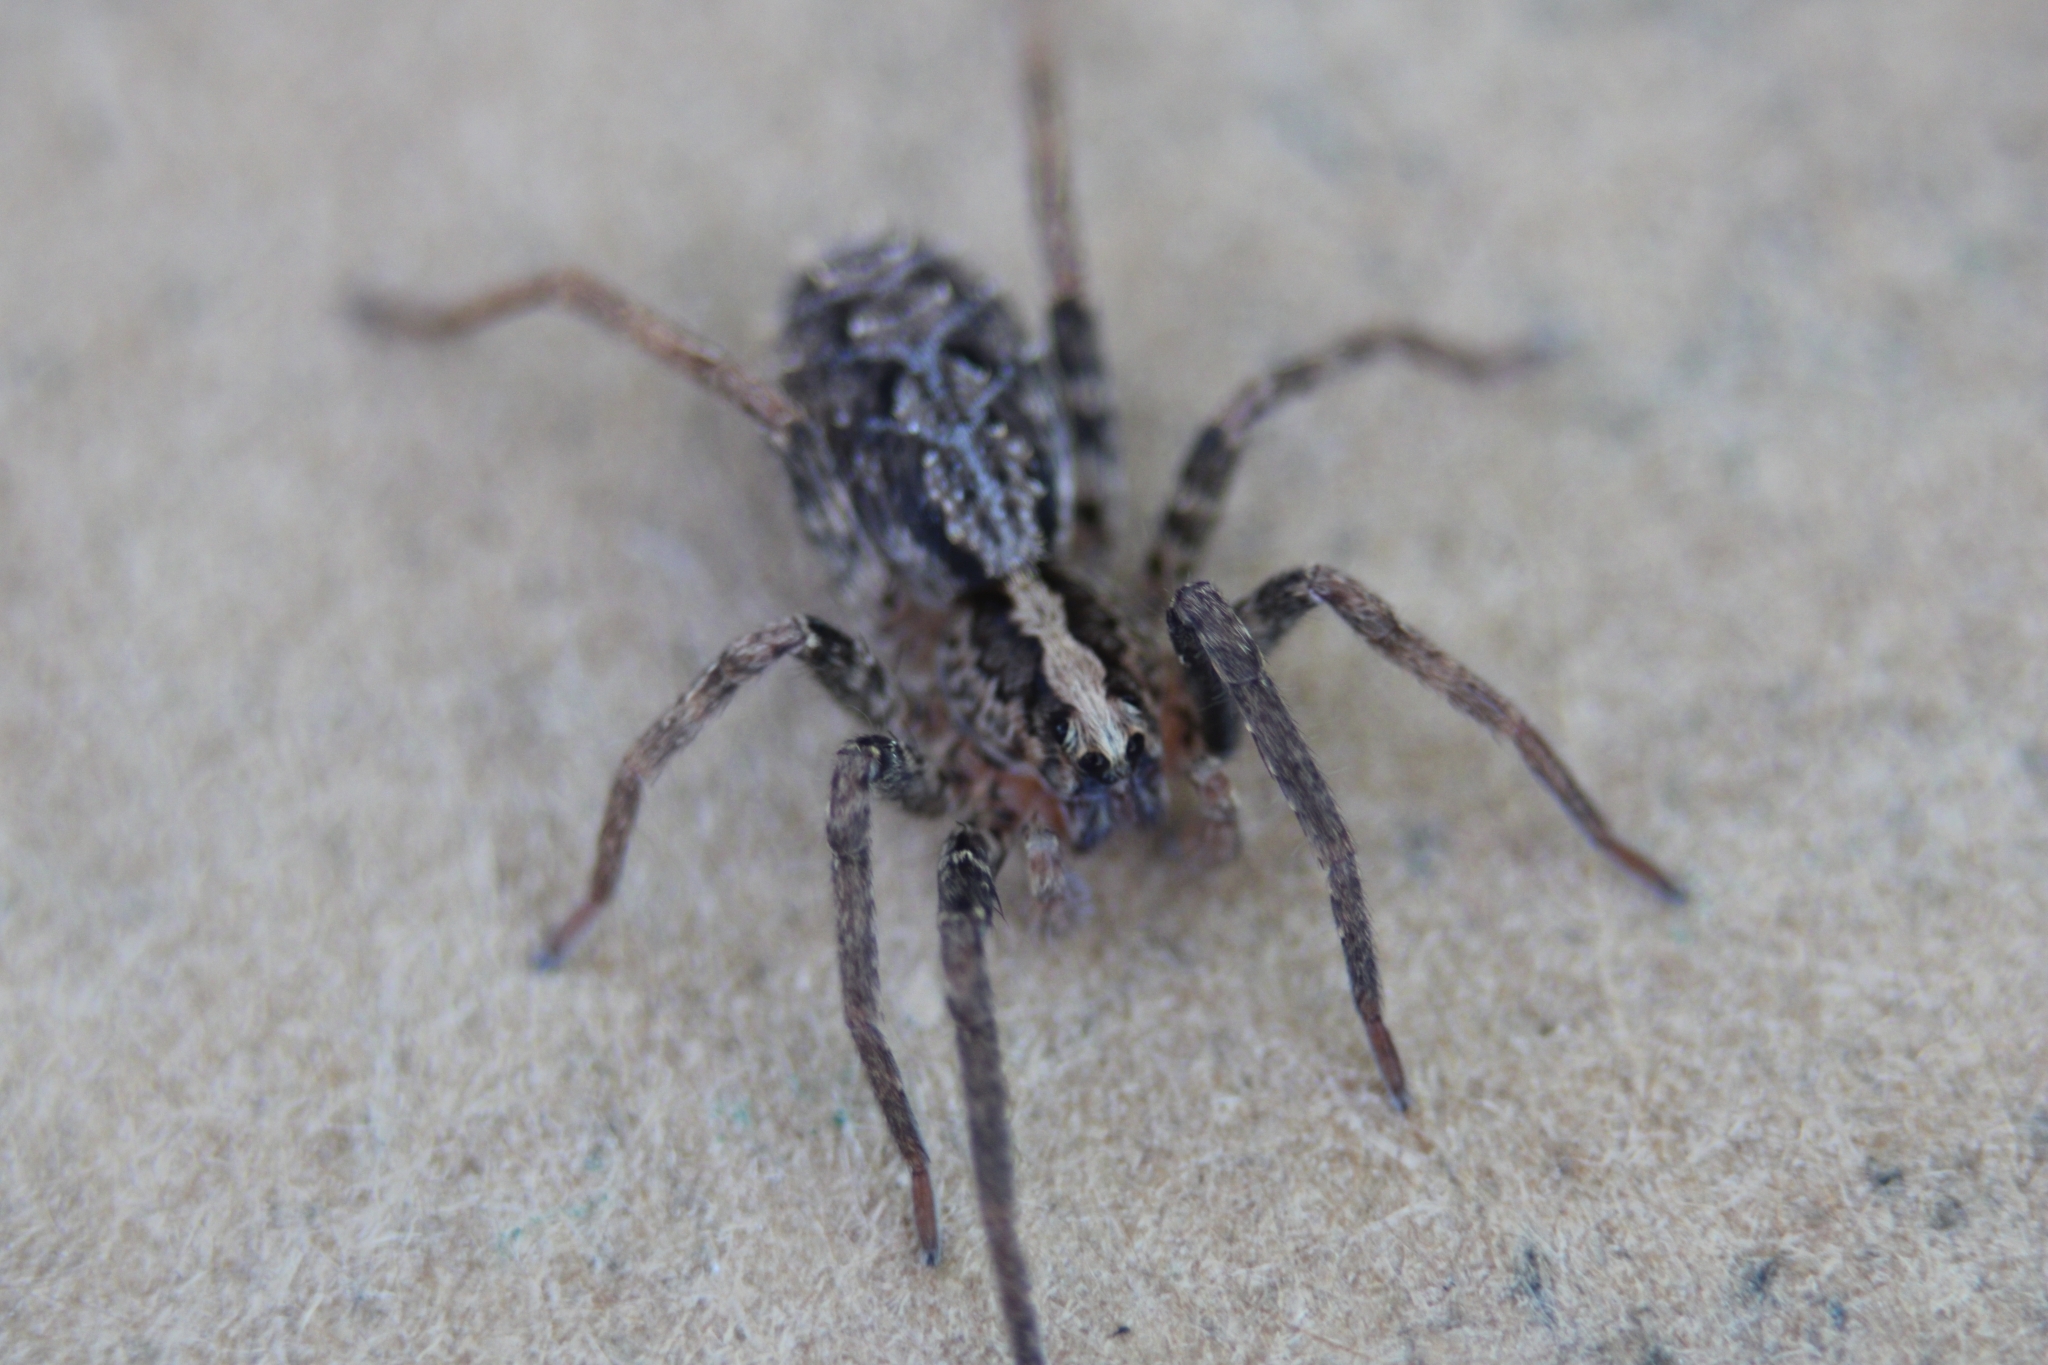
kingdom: Animalia
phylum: Arthropoda
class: Arachnida
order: Araneae
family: Ctenidae
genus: Ctenus
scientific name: Ctenus gulosus
